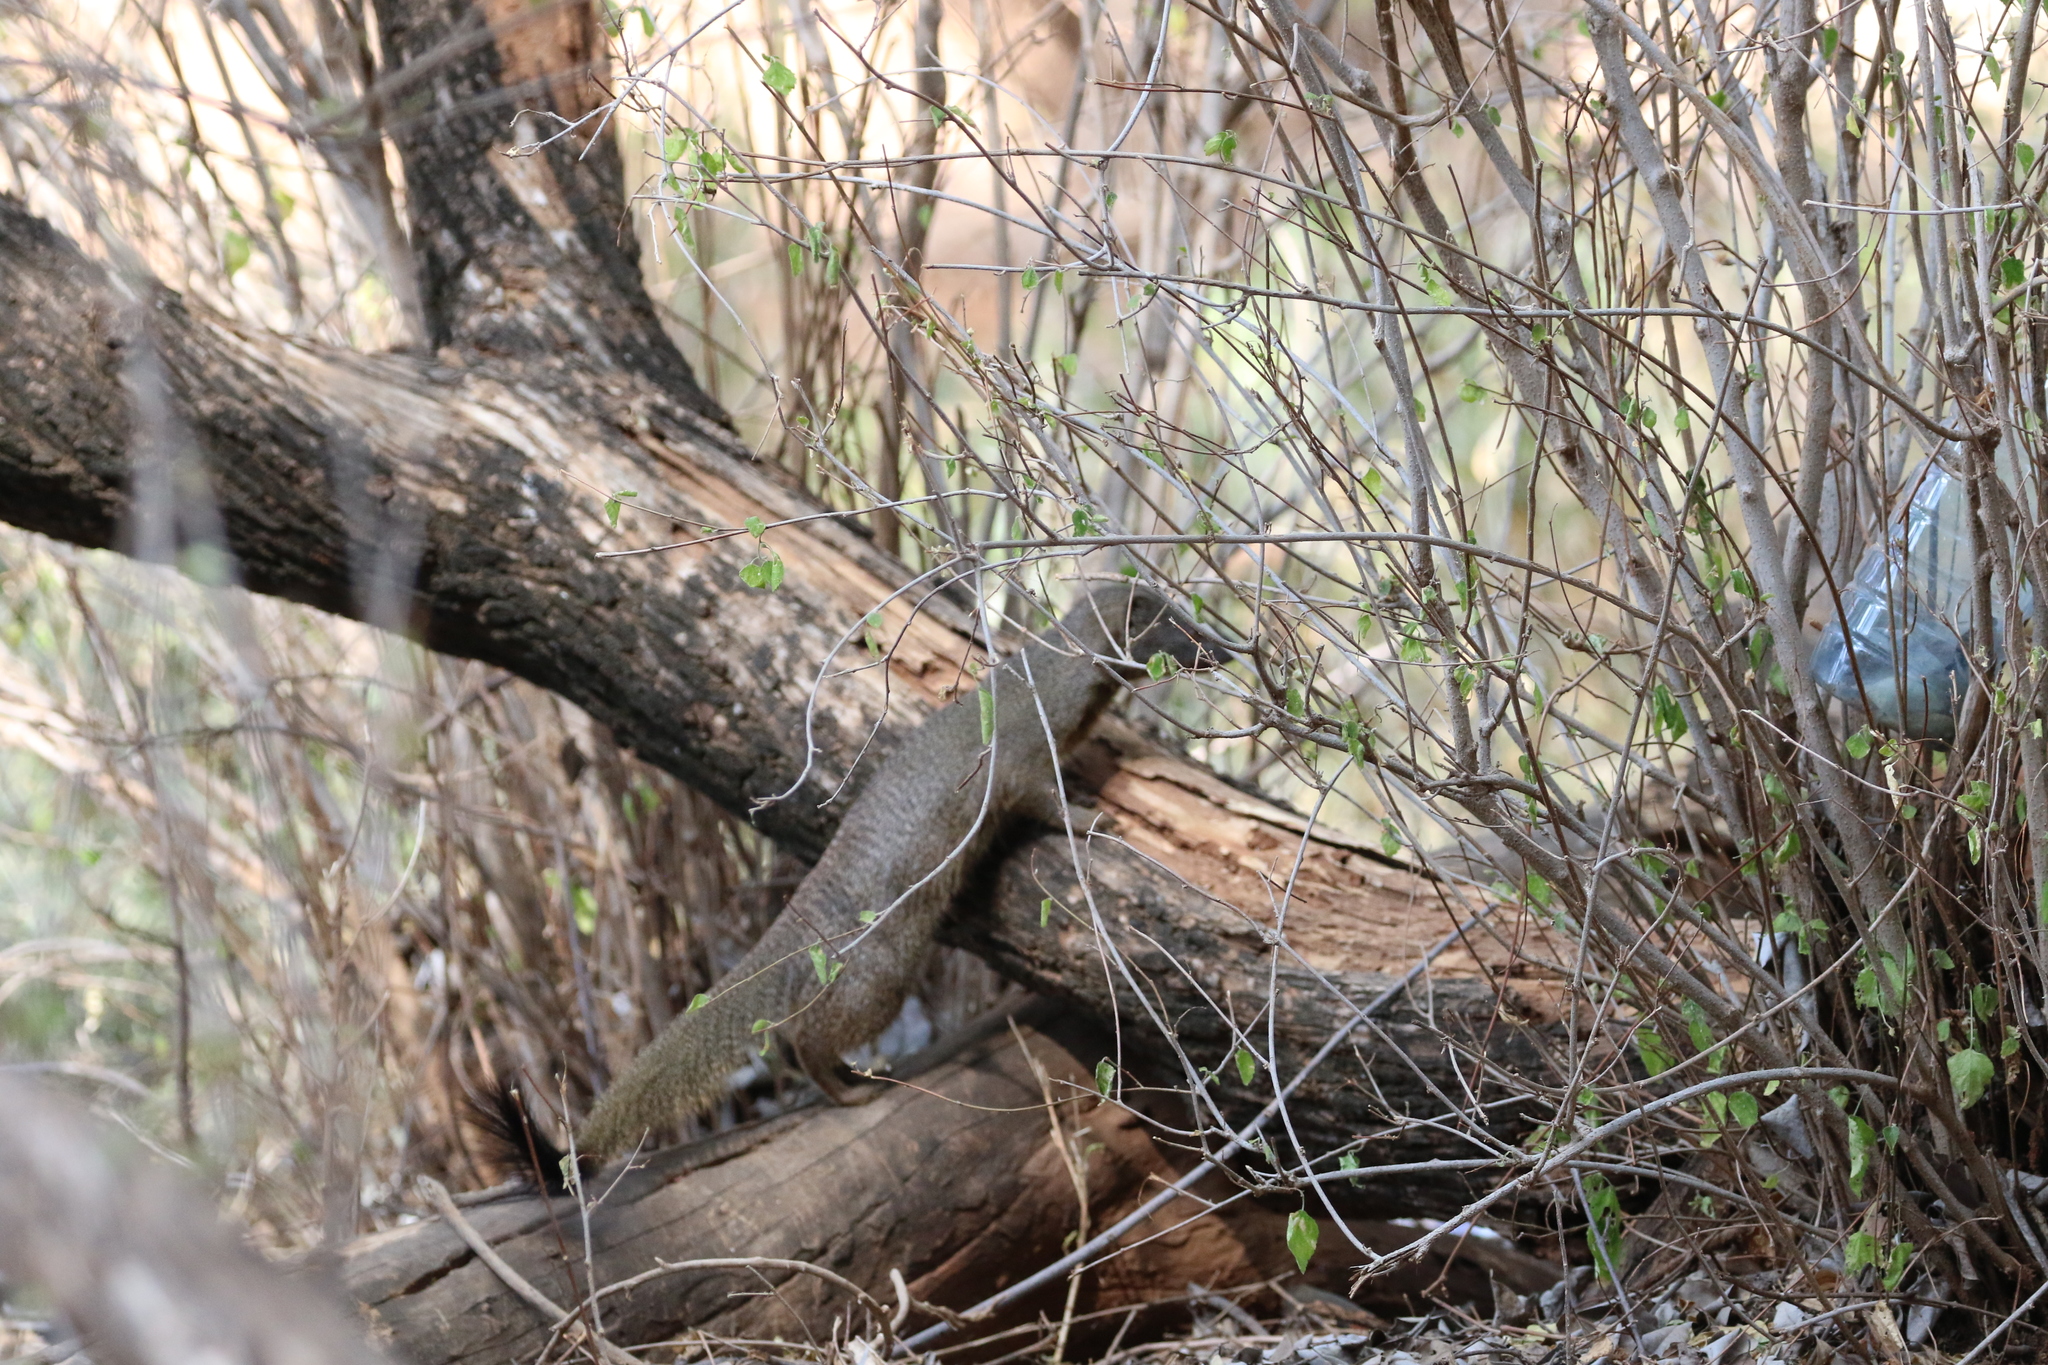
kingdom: Animalia
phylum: Chordata
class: Mammalia
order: Carnivora
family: Herpestidae
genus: Galerella
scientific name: Galerella sanguinea
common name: Slender mongoose
